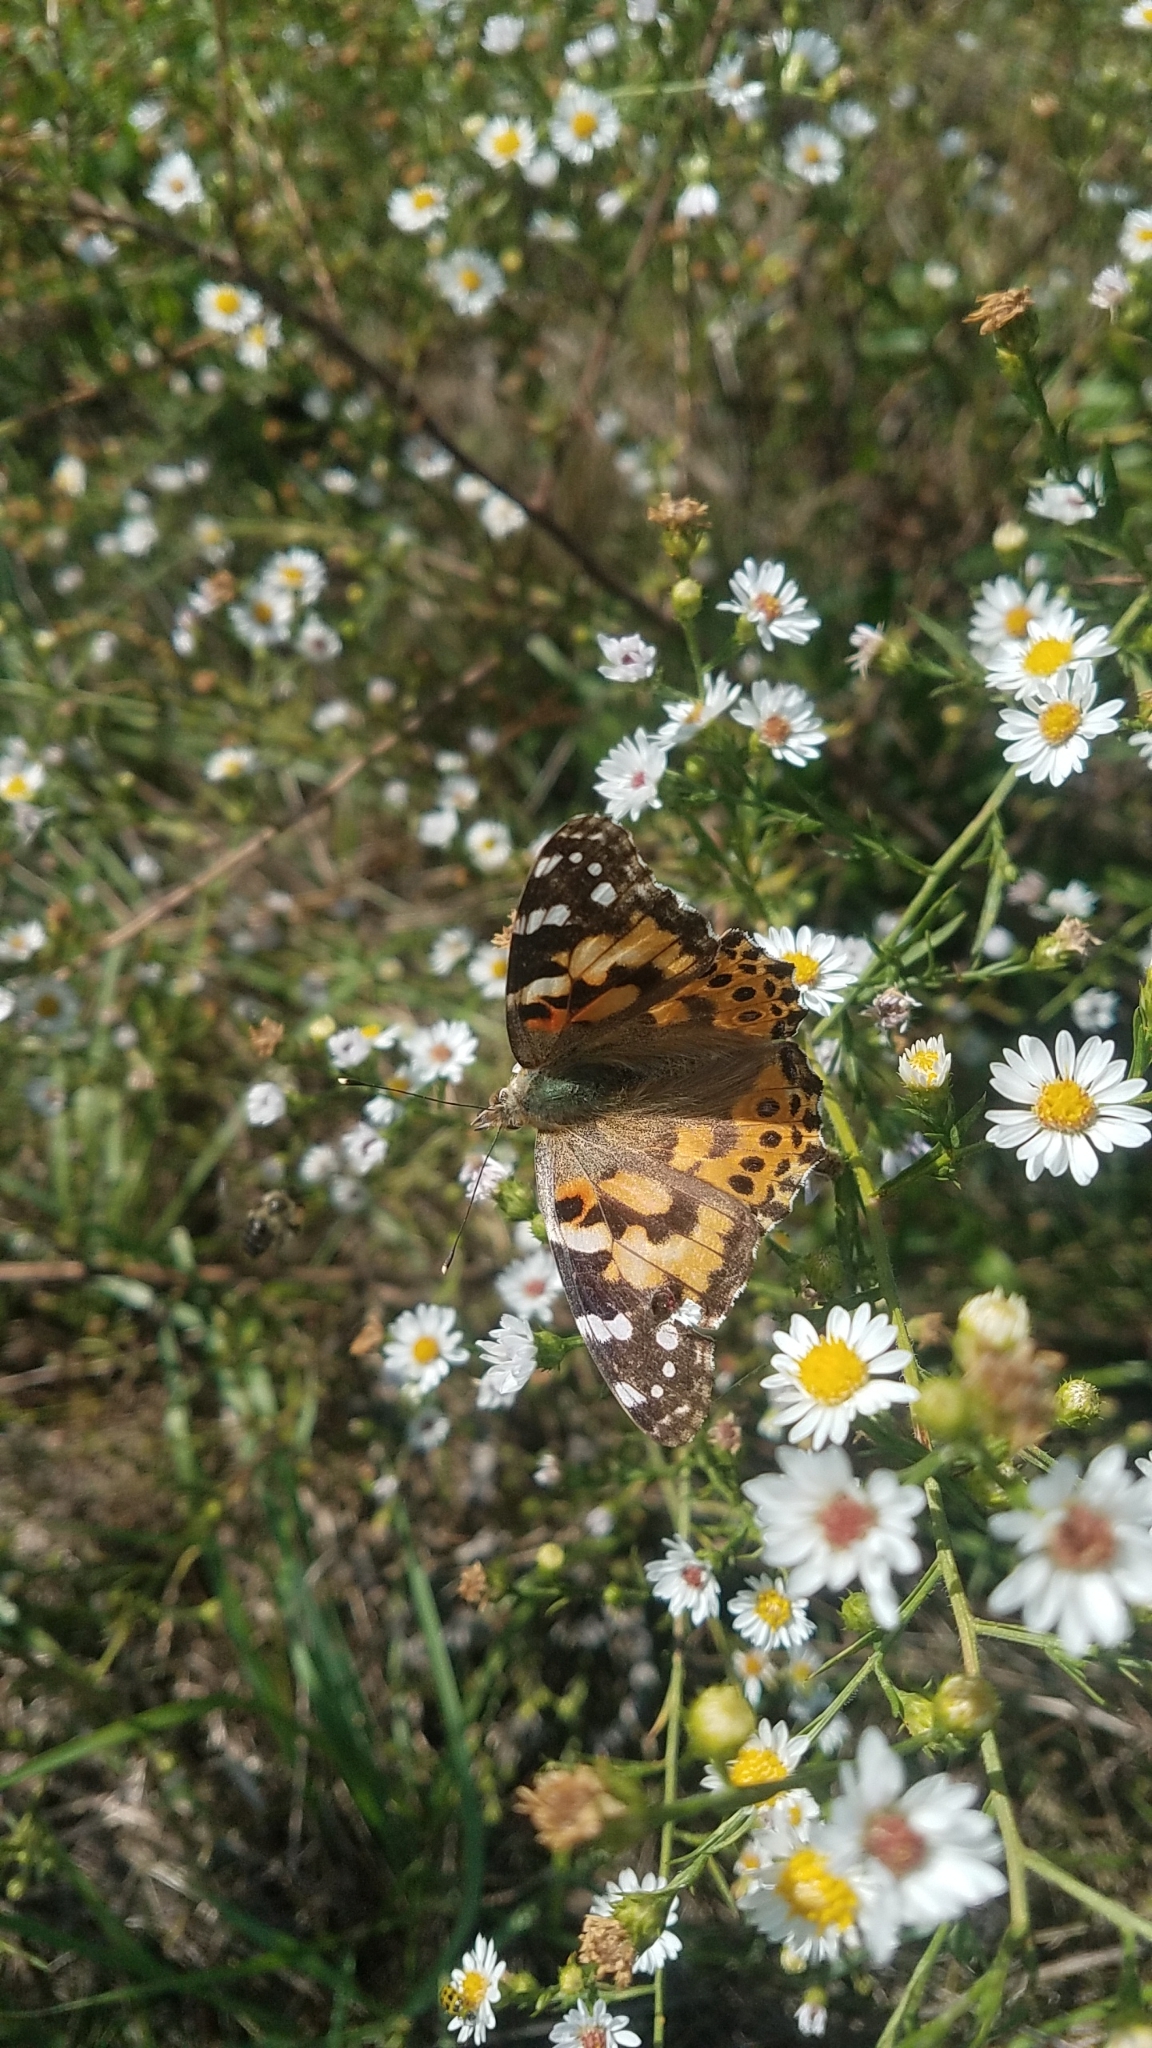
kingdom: Animalia
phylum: Arthropoda
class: Insecta
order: Lepidoptera
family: Nymphalidae
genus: Vanessa
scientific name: Vanessa cardui
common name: Painted lady
